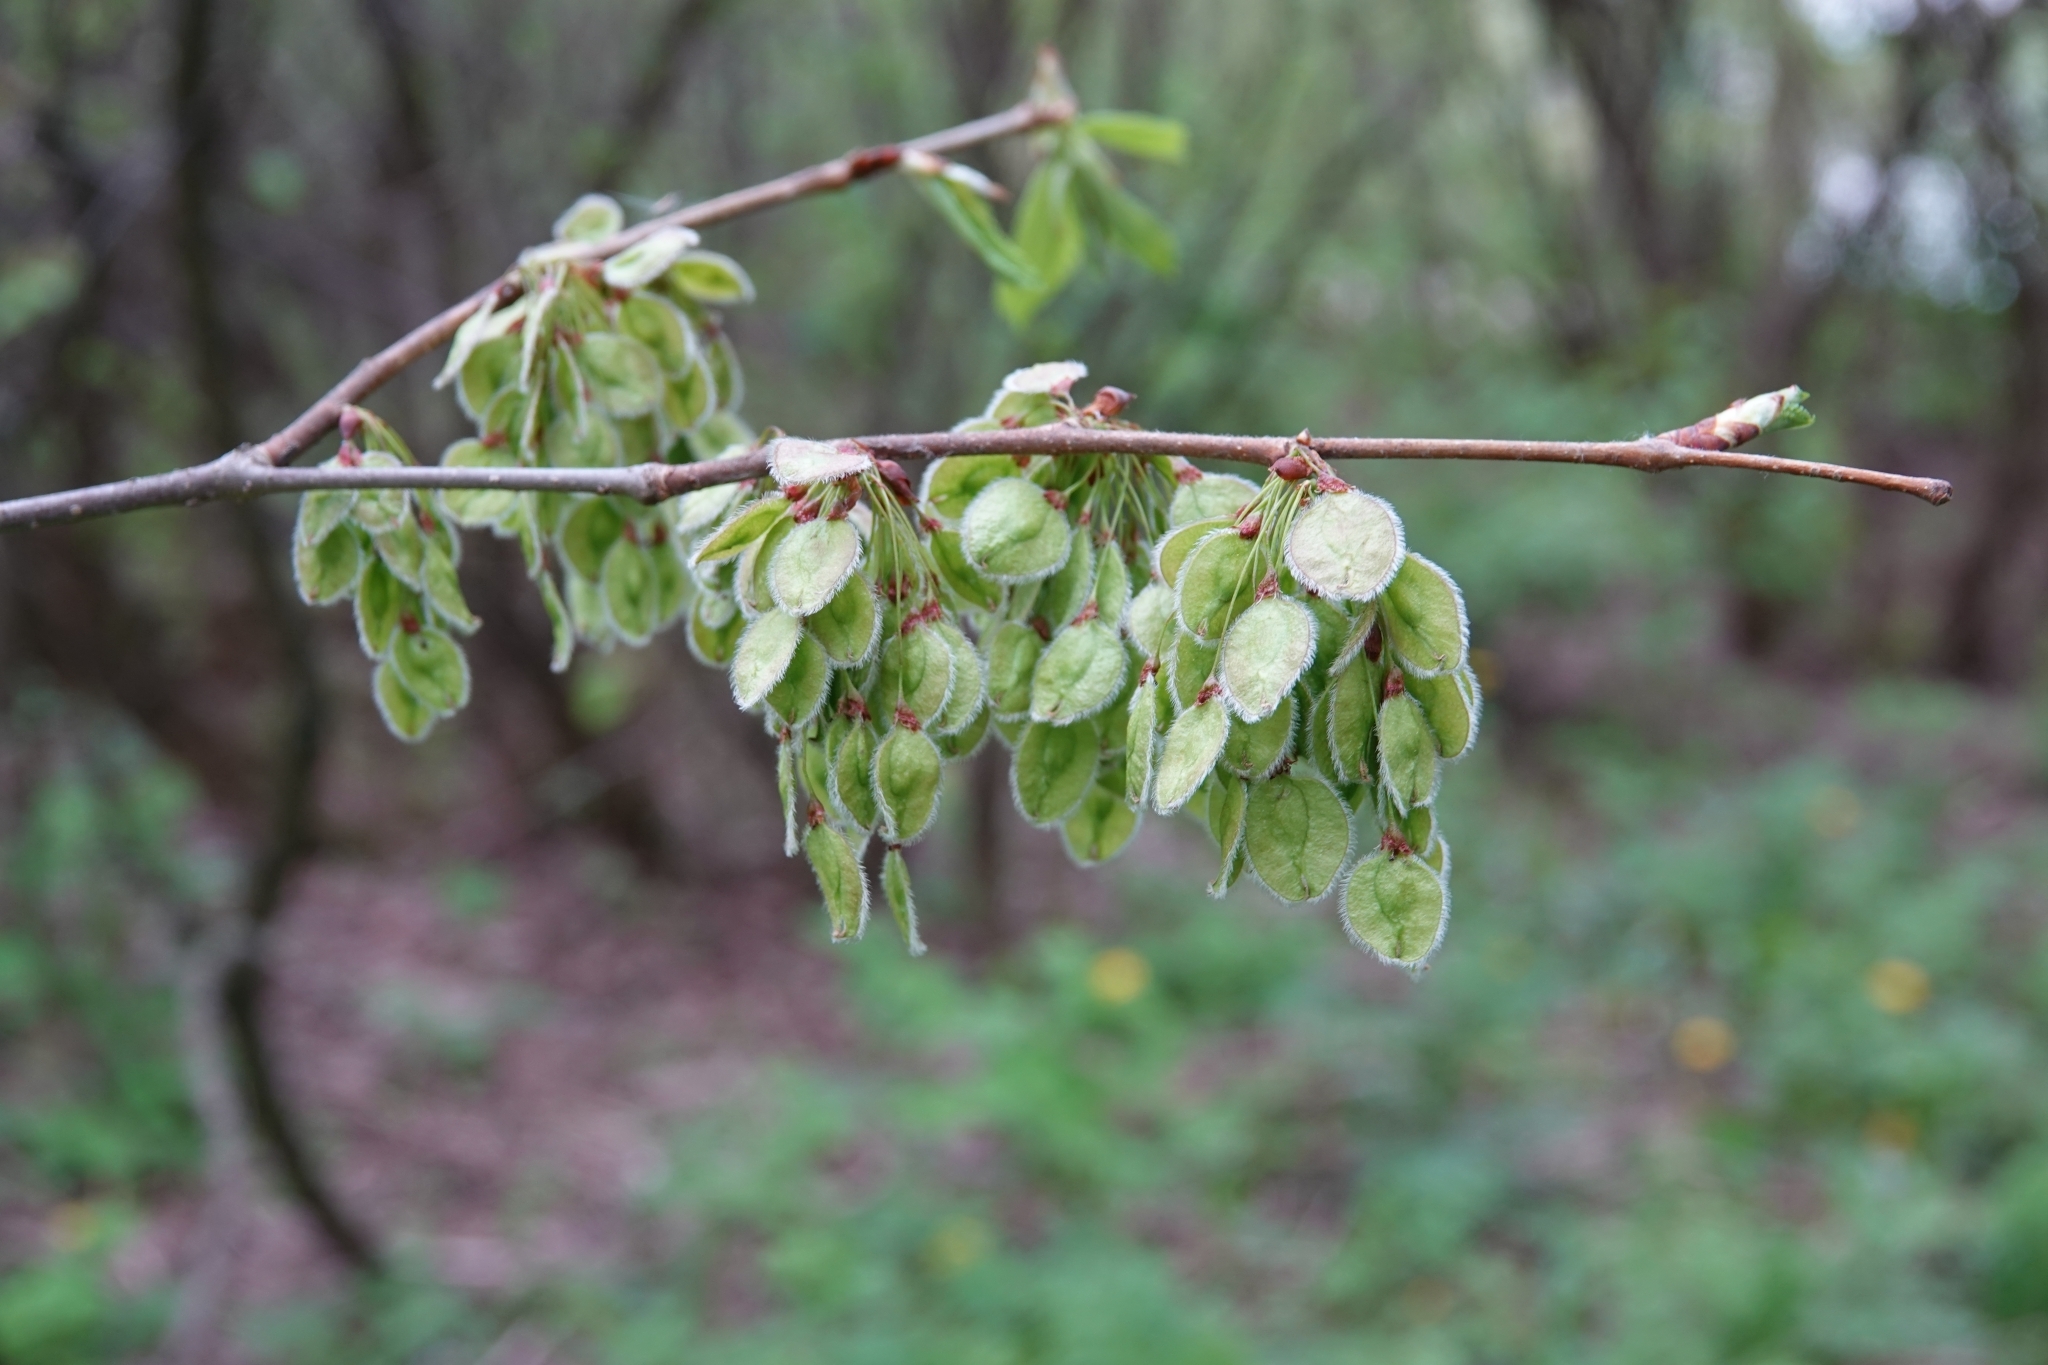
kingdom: Plantae
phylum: Tracheophyta
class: Magnoliopsida
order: Rosales
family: Ulmaceae
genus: Ulmus
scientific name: Ulmus laevis
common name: European white-elm
